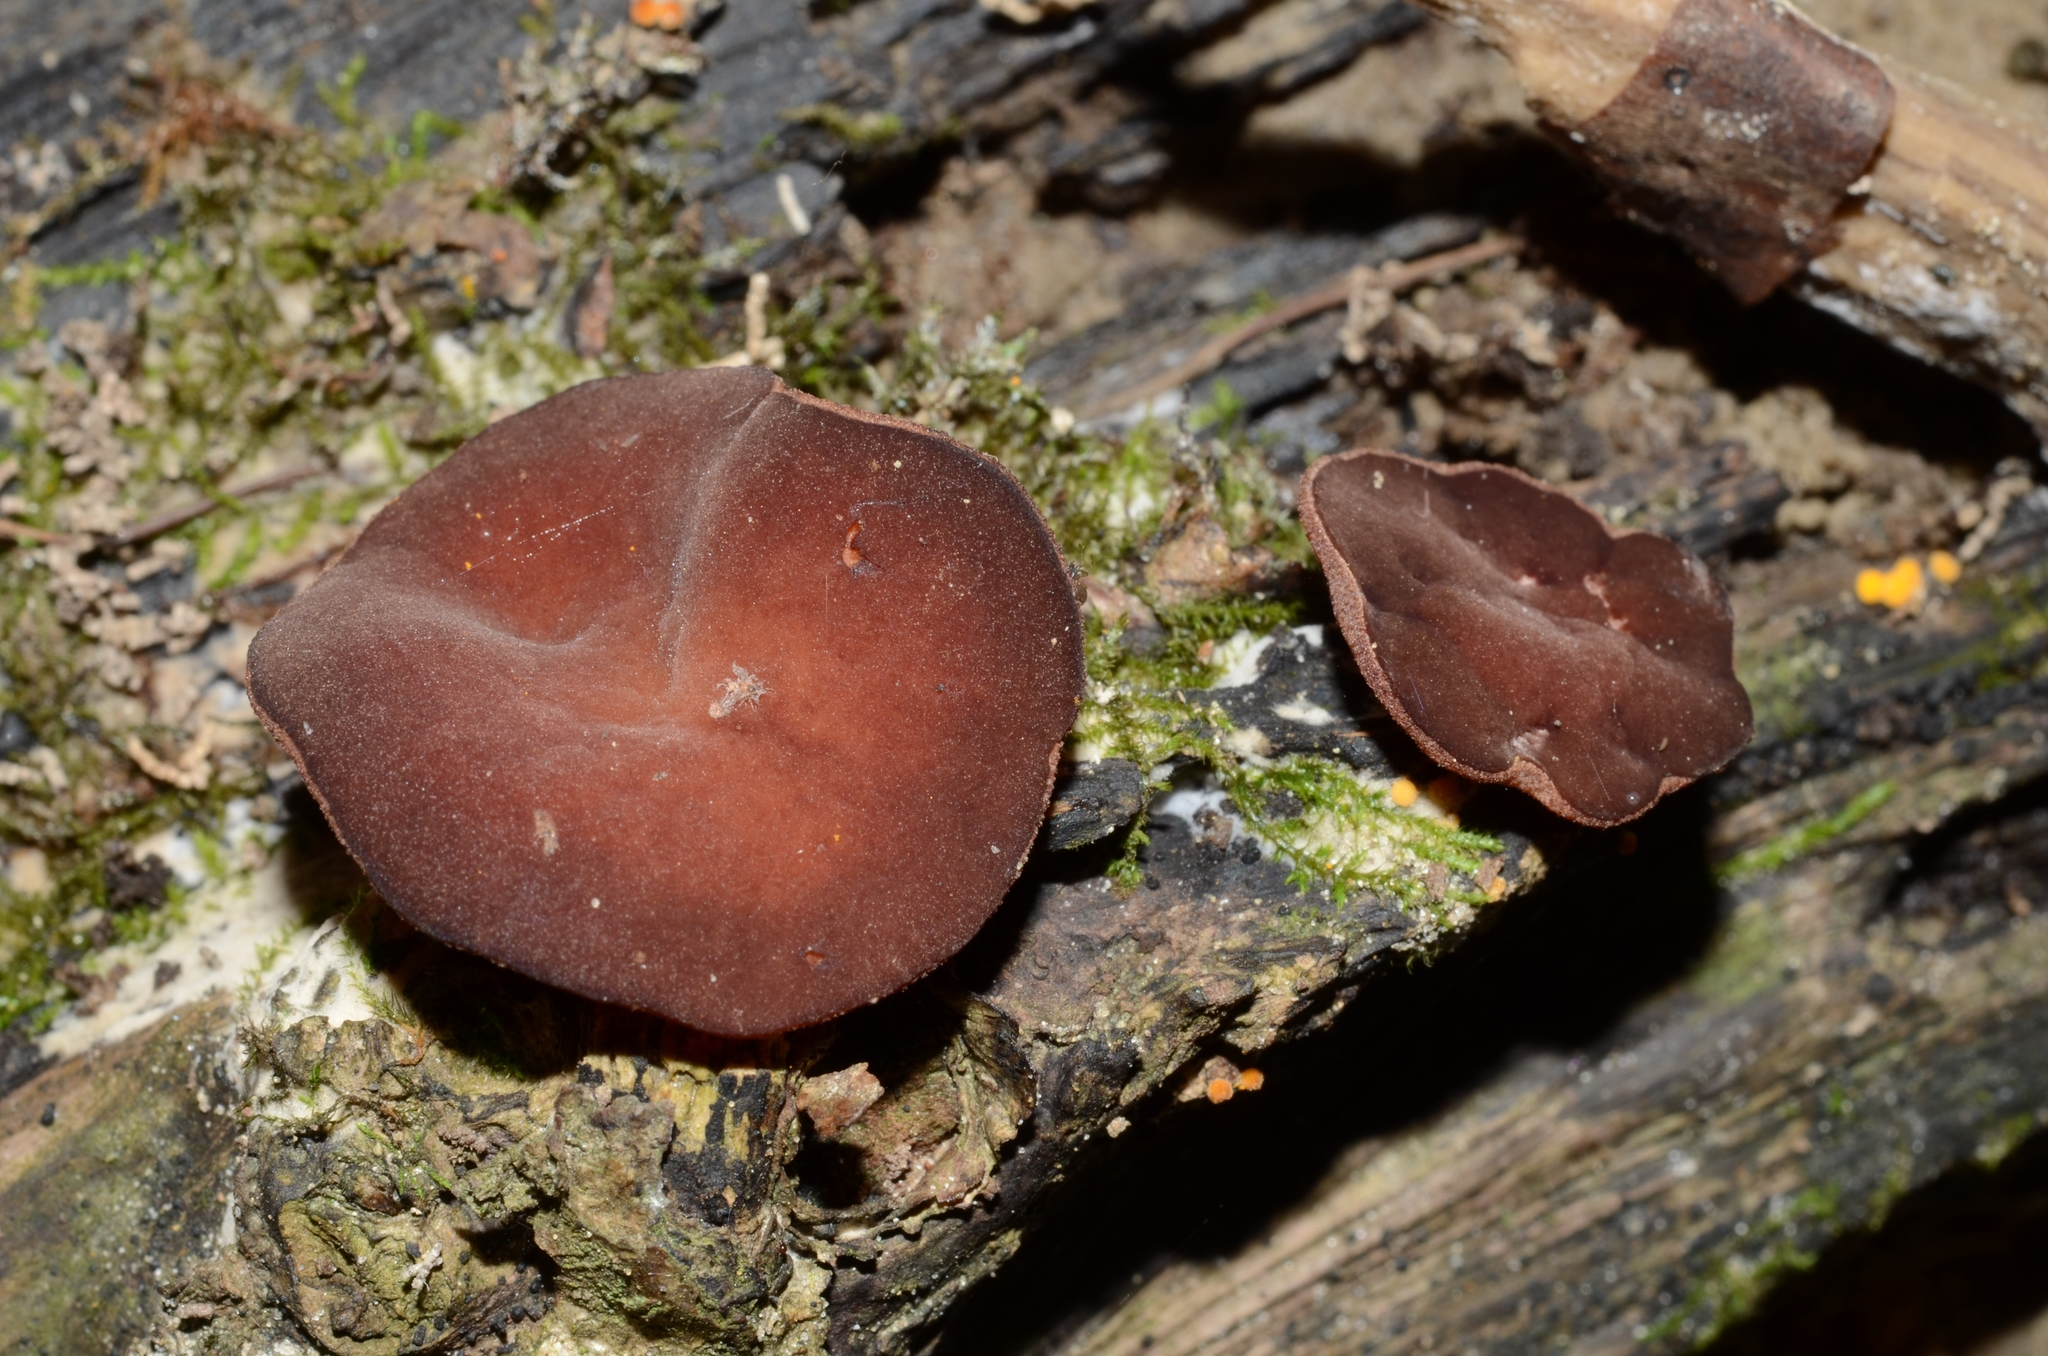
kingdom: Fungi
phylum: Ascomycota
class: Pezizomycetes
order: Pezizales
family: Pezizaceae
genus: Purpureodiscus
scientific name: Purpureodiscus subisabellinus
